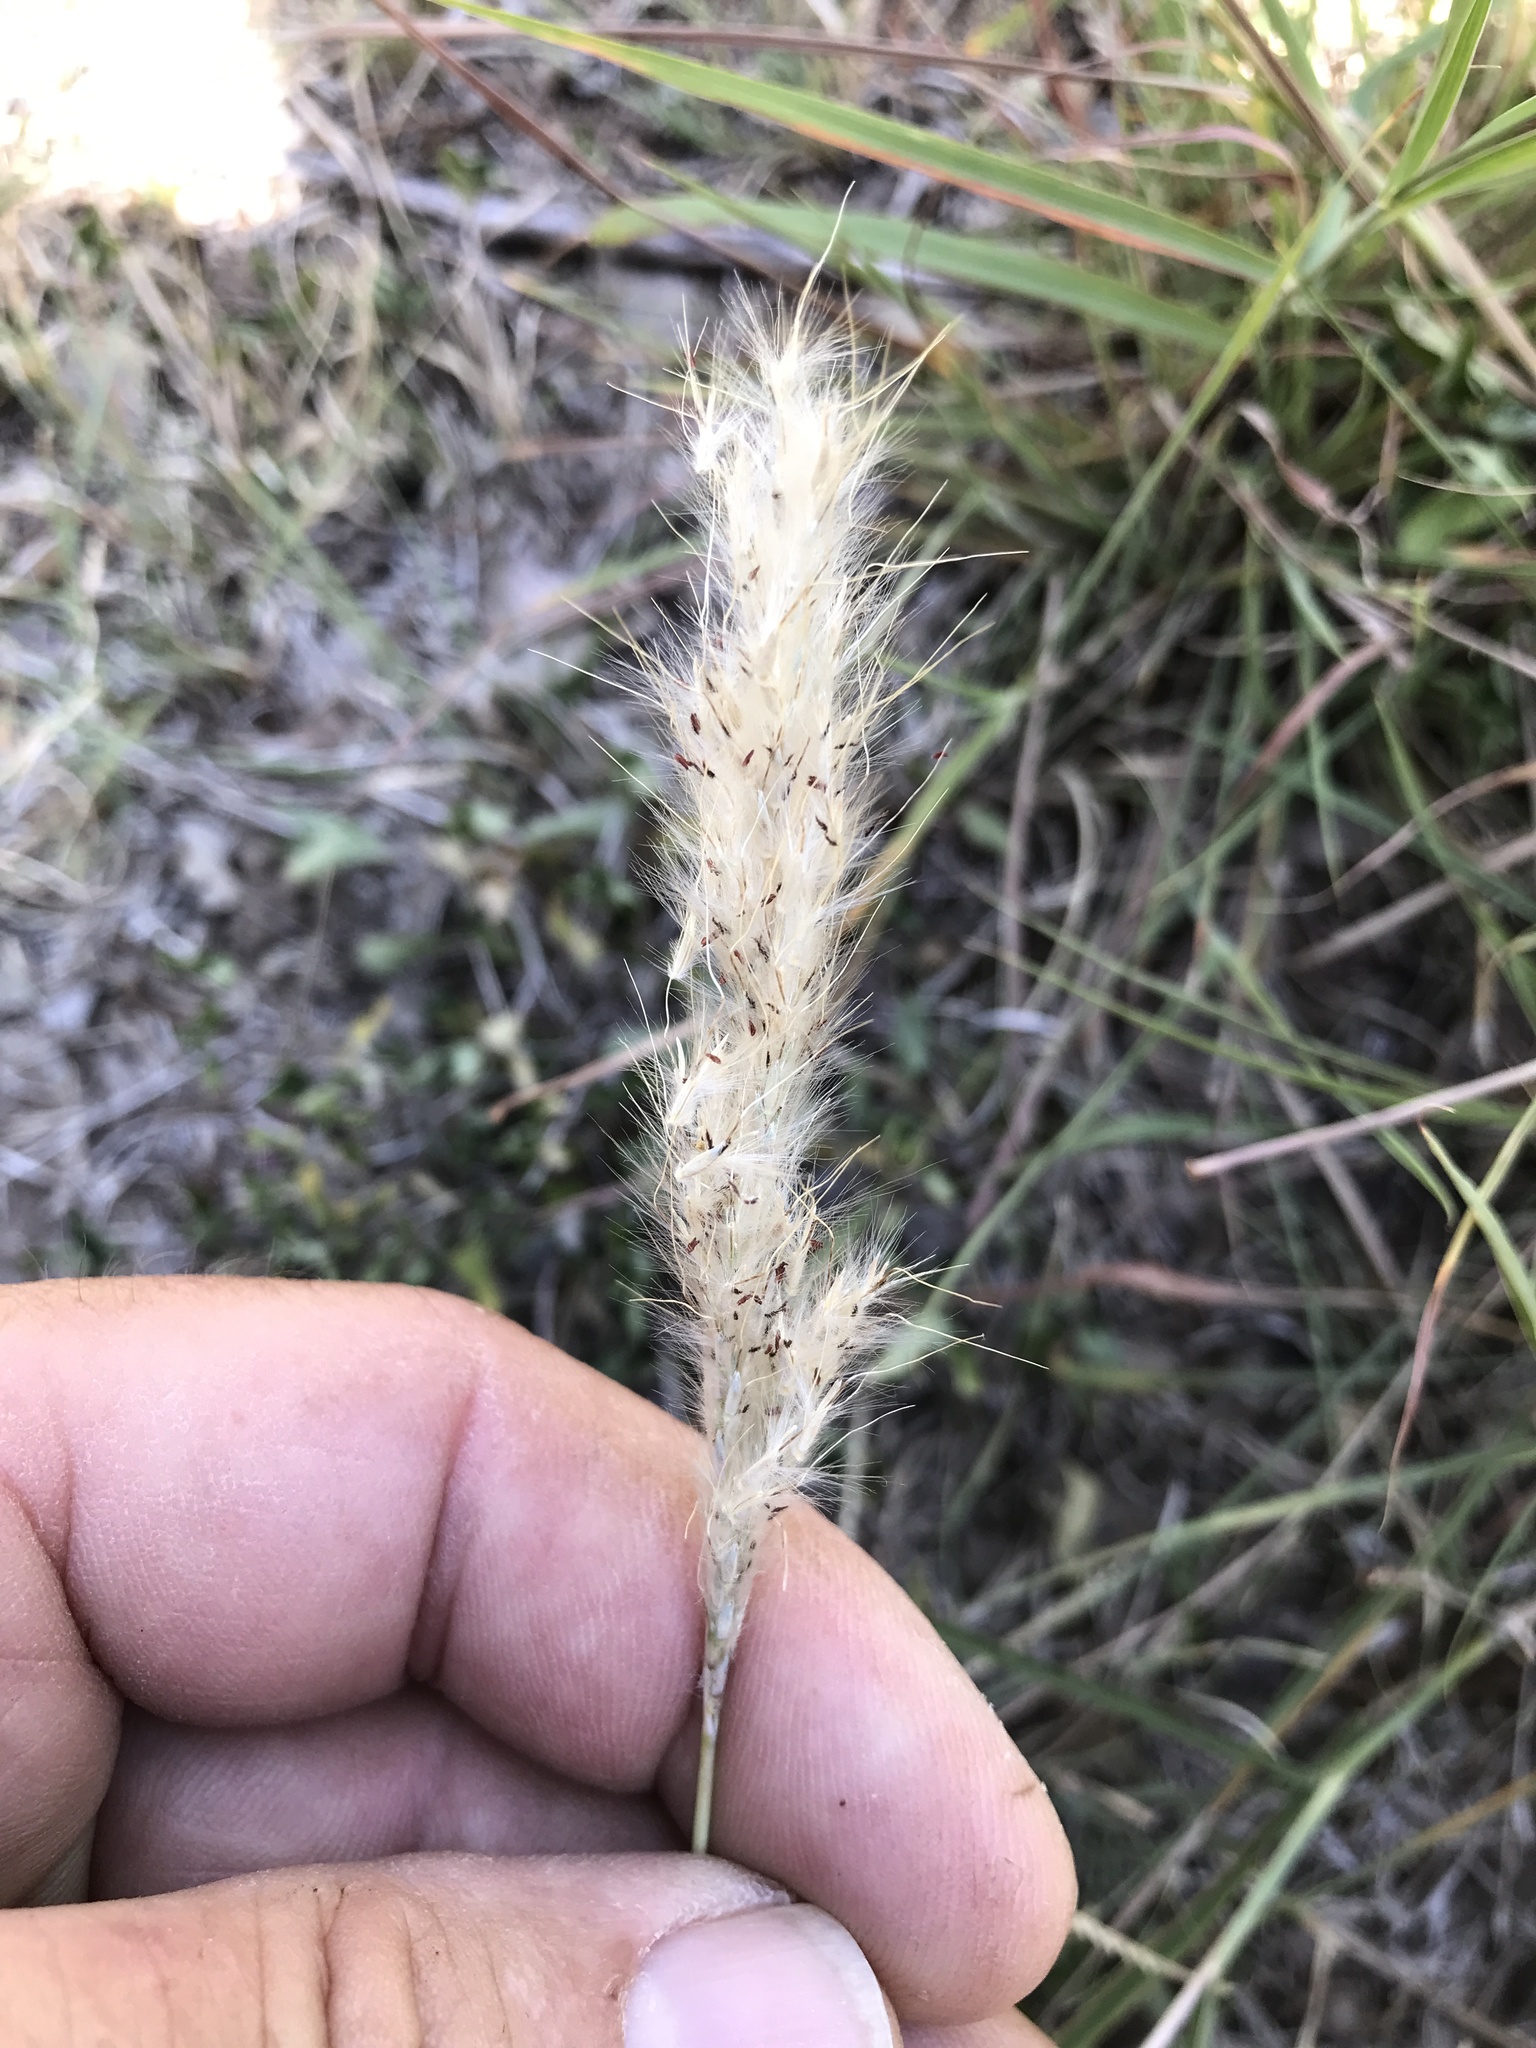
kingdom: Plantae
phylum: Tracheophyta
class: Liliopsida
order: Poales
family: Poaceae
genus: Bothriochloa
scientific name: Bothriochloa torreyana
